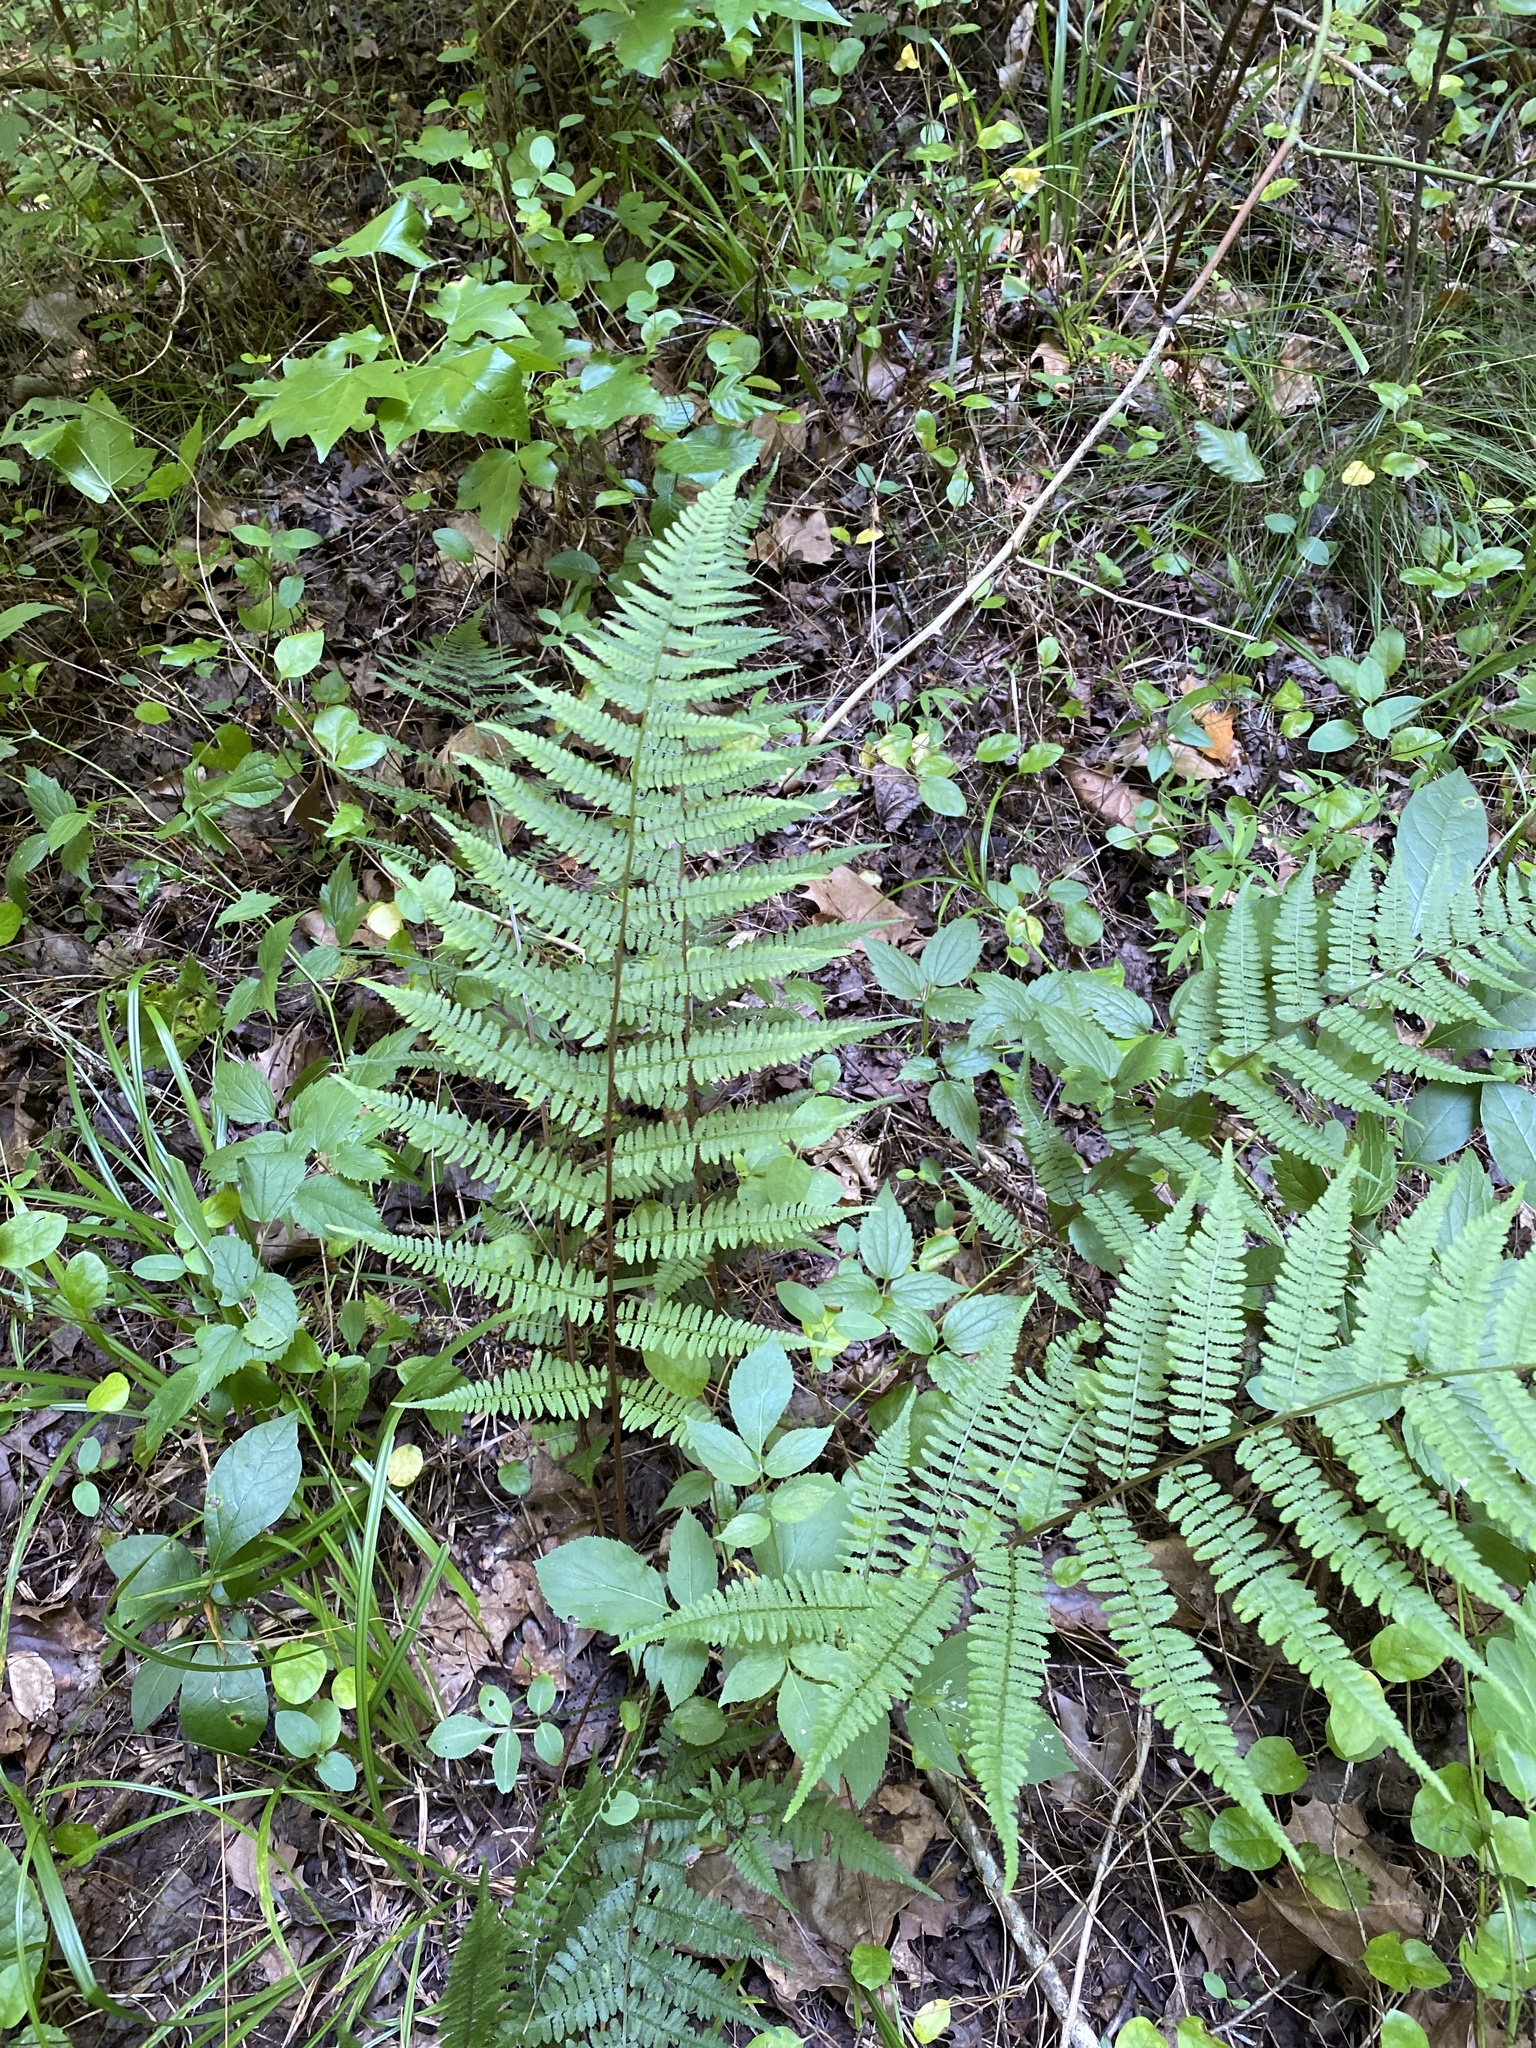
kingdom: Plantae
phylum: Tracheophyta
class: Polypodiopsida
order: Polypodiales
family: Athyriaceae
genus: Athyrium
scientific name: Athyrium asplenioides
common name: Southern lady fern
